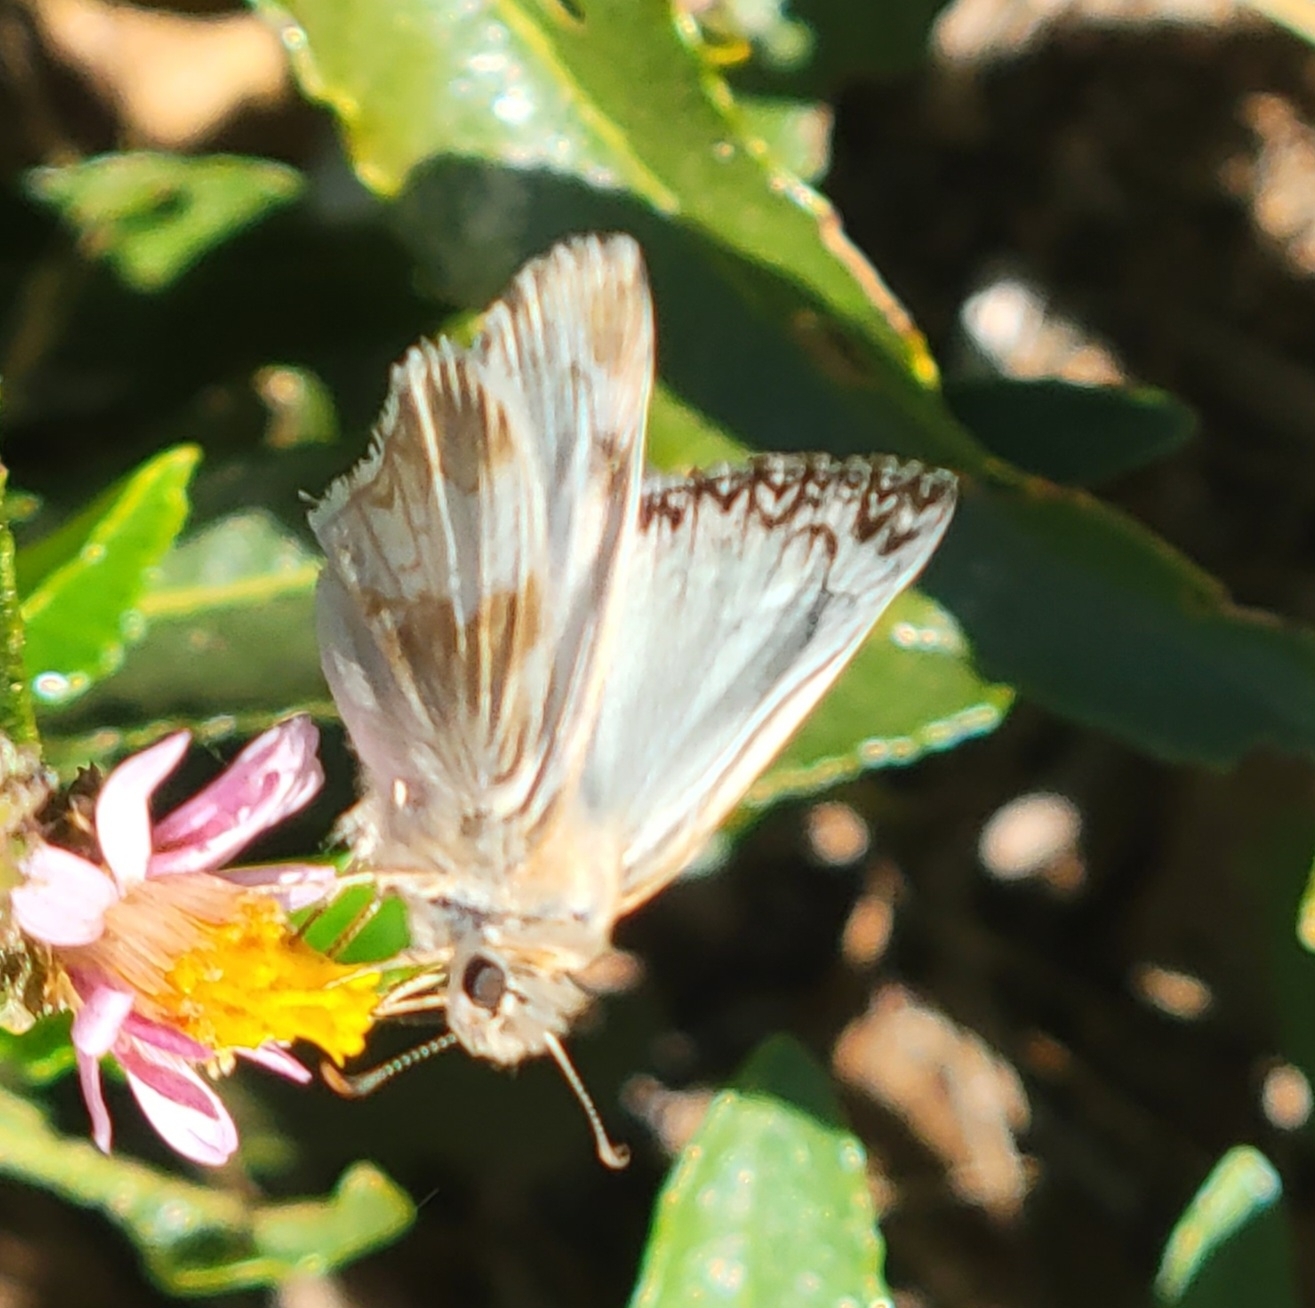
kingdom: Animalia
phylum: Arthropoda
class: Insecta
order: Lepidoptera
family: Hesperiidae
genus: Heliopetes
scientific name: Heliopetes ericetorum
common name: Northern white-skipper
